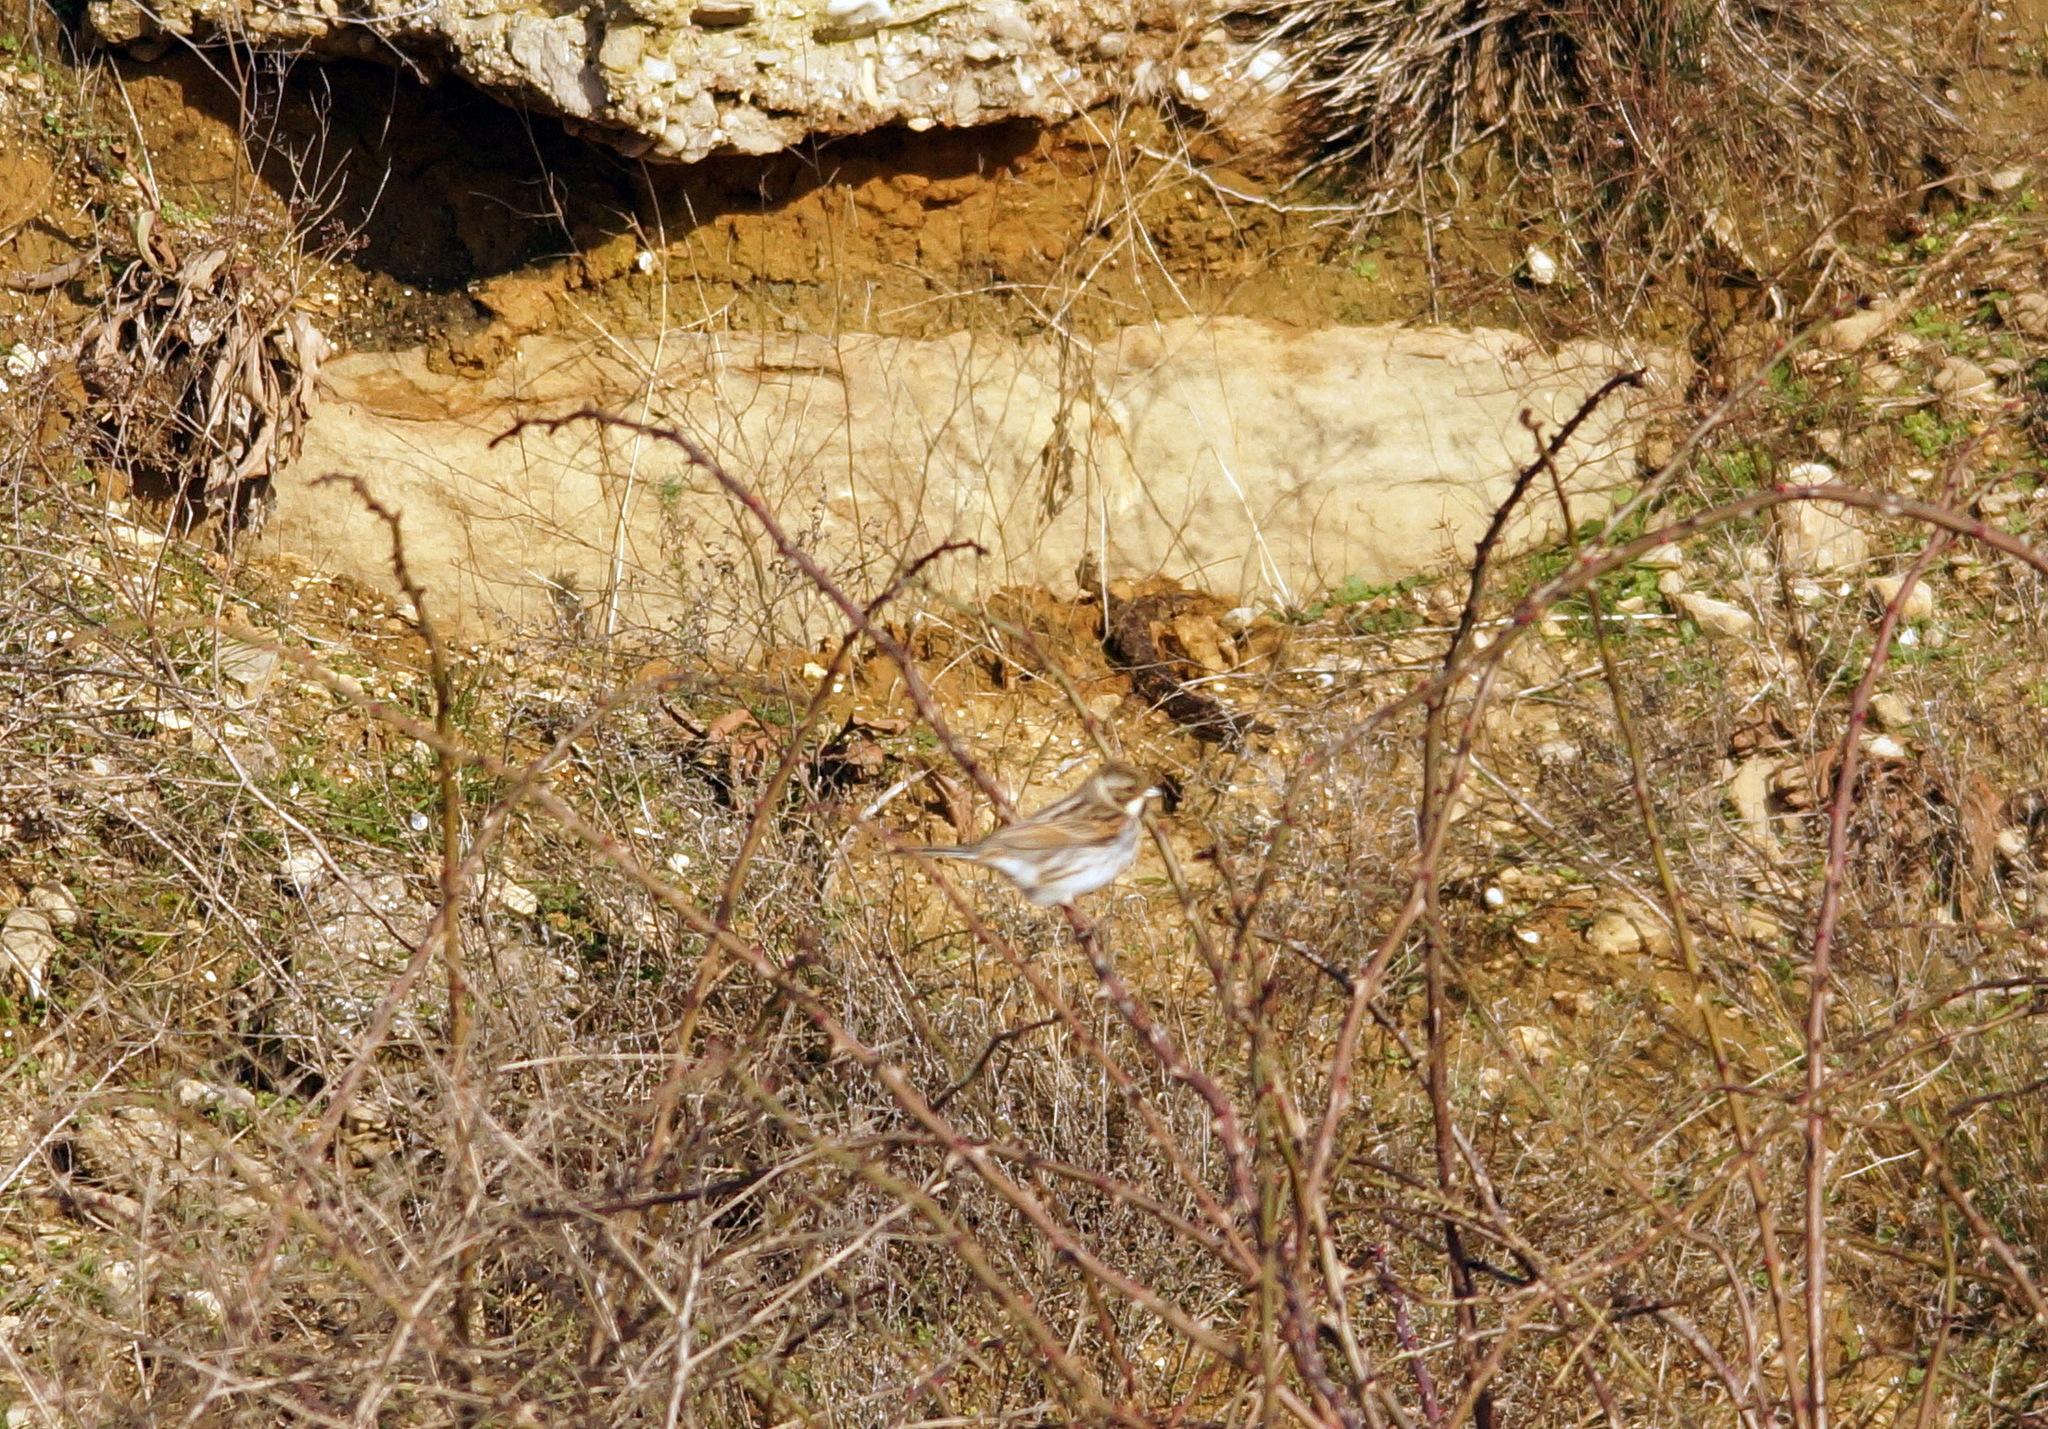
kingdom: Animalia
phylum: Chordata
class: Aves
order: Passeriformes
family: Emberizidae
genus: Emberiza
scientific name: Emberiza schoeniclus
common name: Reed bunting
